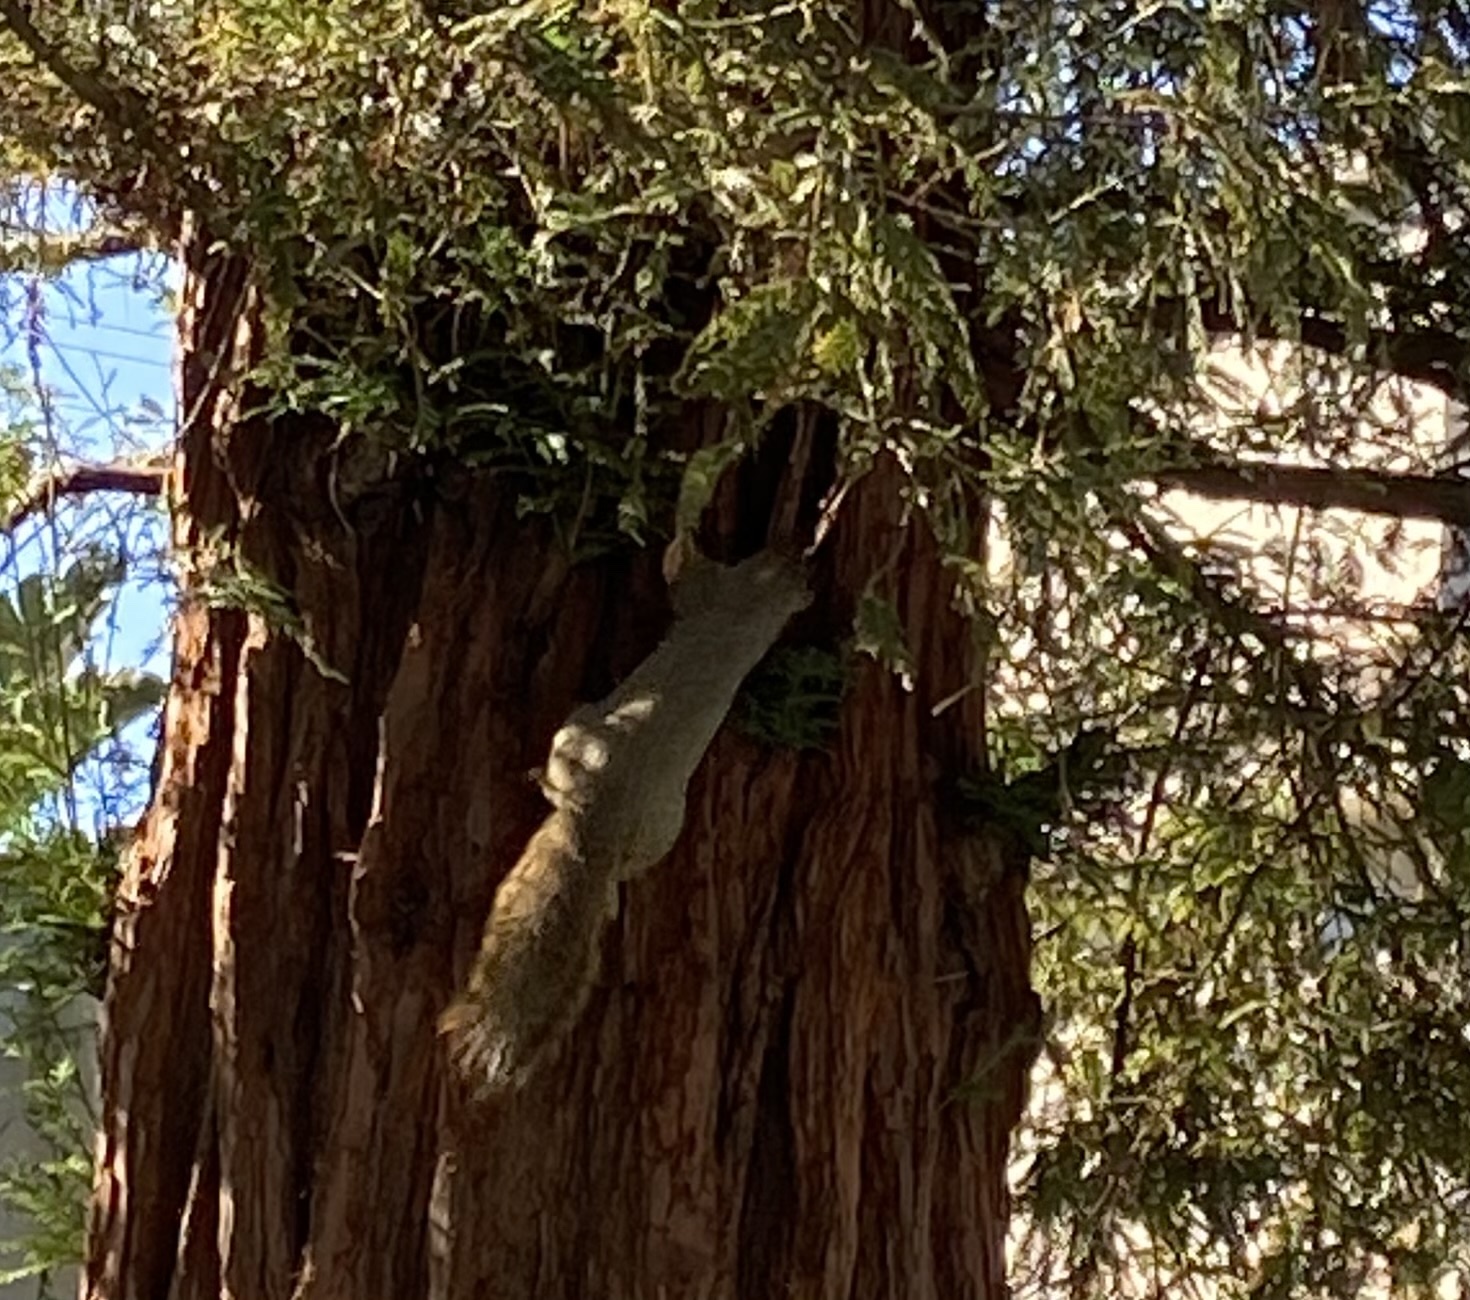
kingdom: Animalia
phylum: Chordata
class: Mammalia
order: Rodentia
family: Sciuridae
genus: Sciurus
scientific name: Sciurus niger
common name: Fox squirrel
